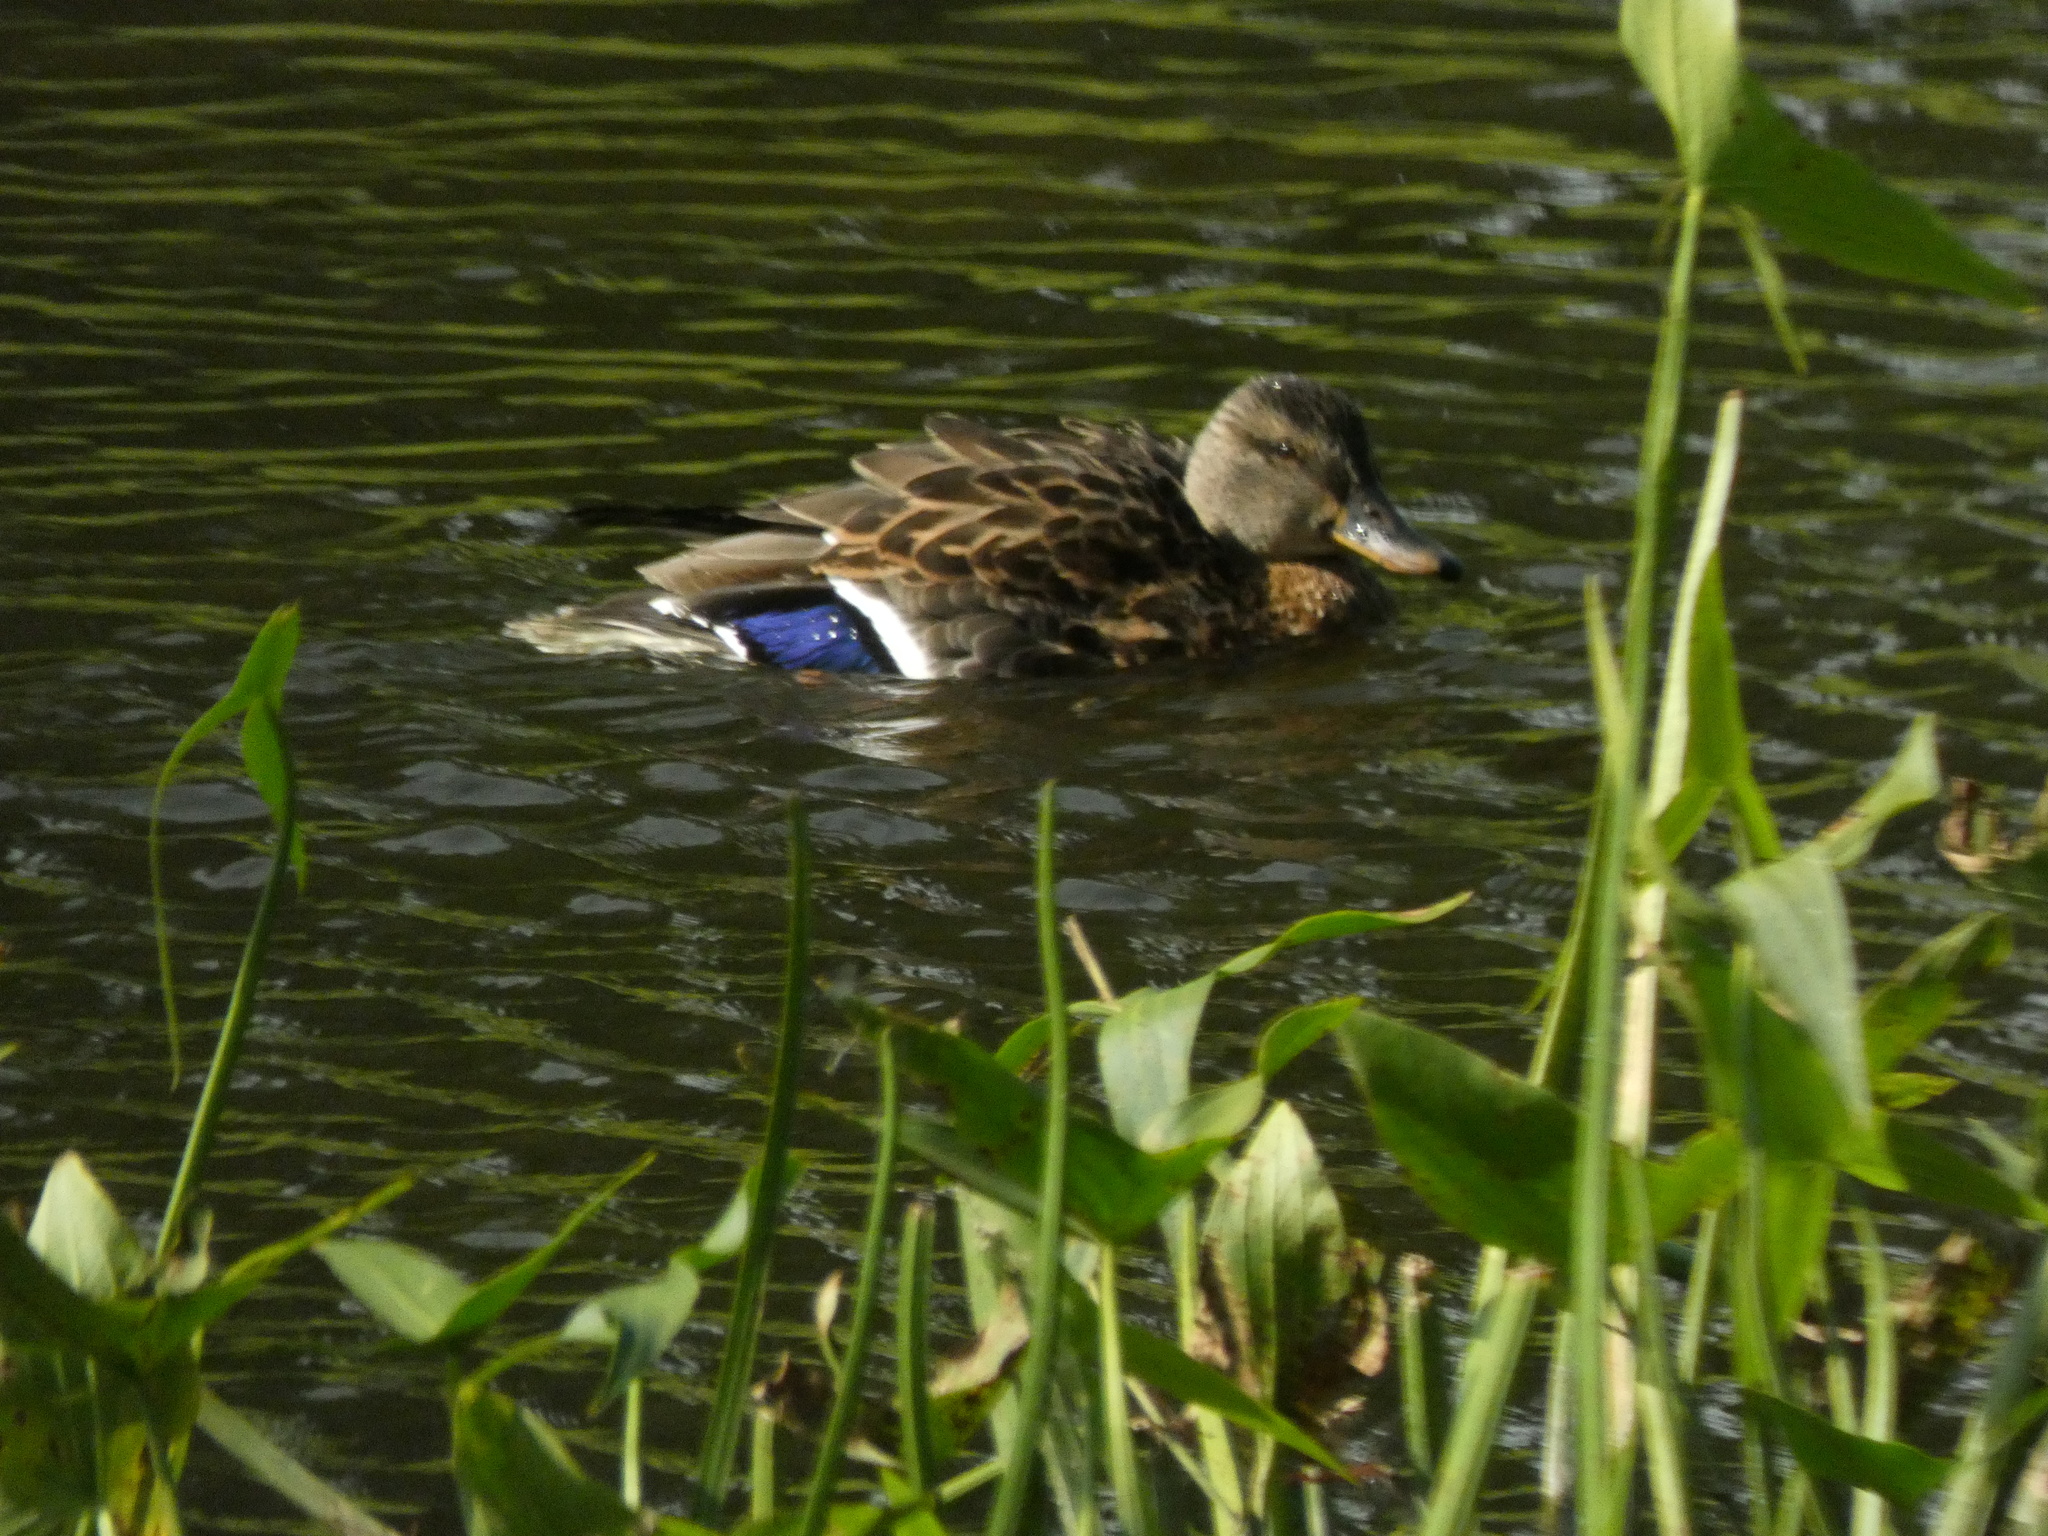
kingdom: Animalia
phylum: Chordata
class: Aves
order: Anseriformes
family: Anatidae
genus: Anas
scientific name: Anas platyrhynchos
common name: Mallard
